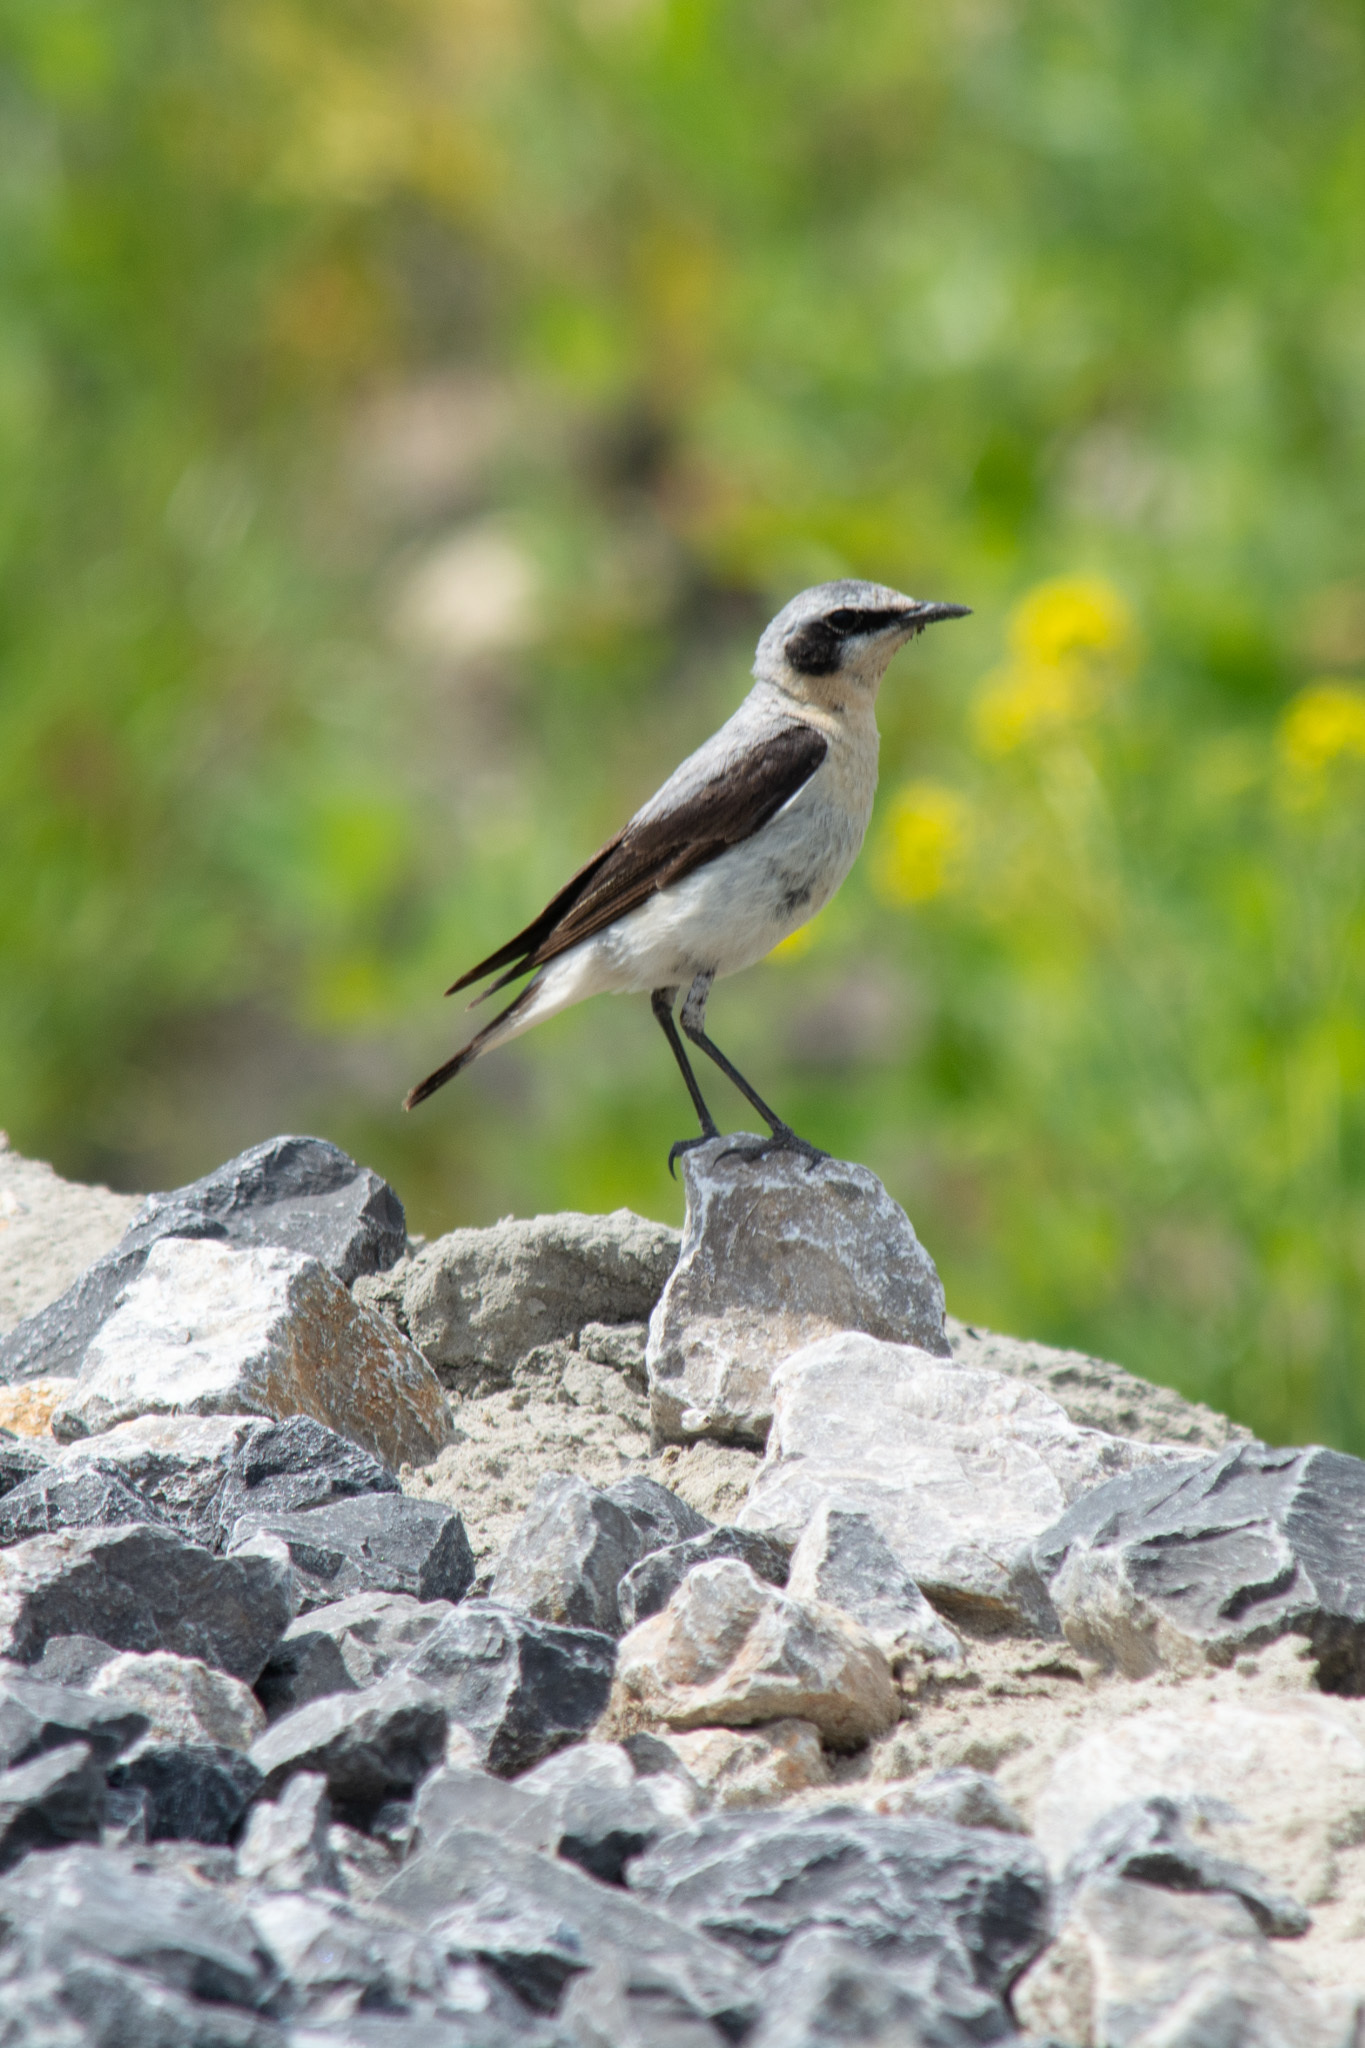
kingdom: Animalia
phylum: Chordata
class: Aves
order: Passeriformes
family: Muscicapidae
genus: Oenanthe
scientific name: Oenanthe oenanthe
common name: Northern wheatear
